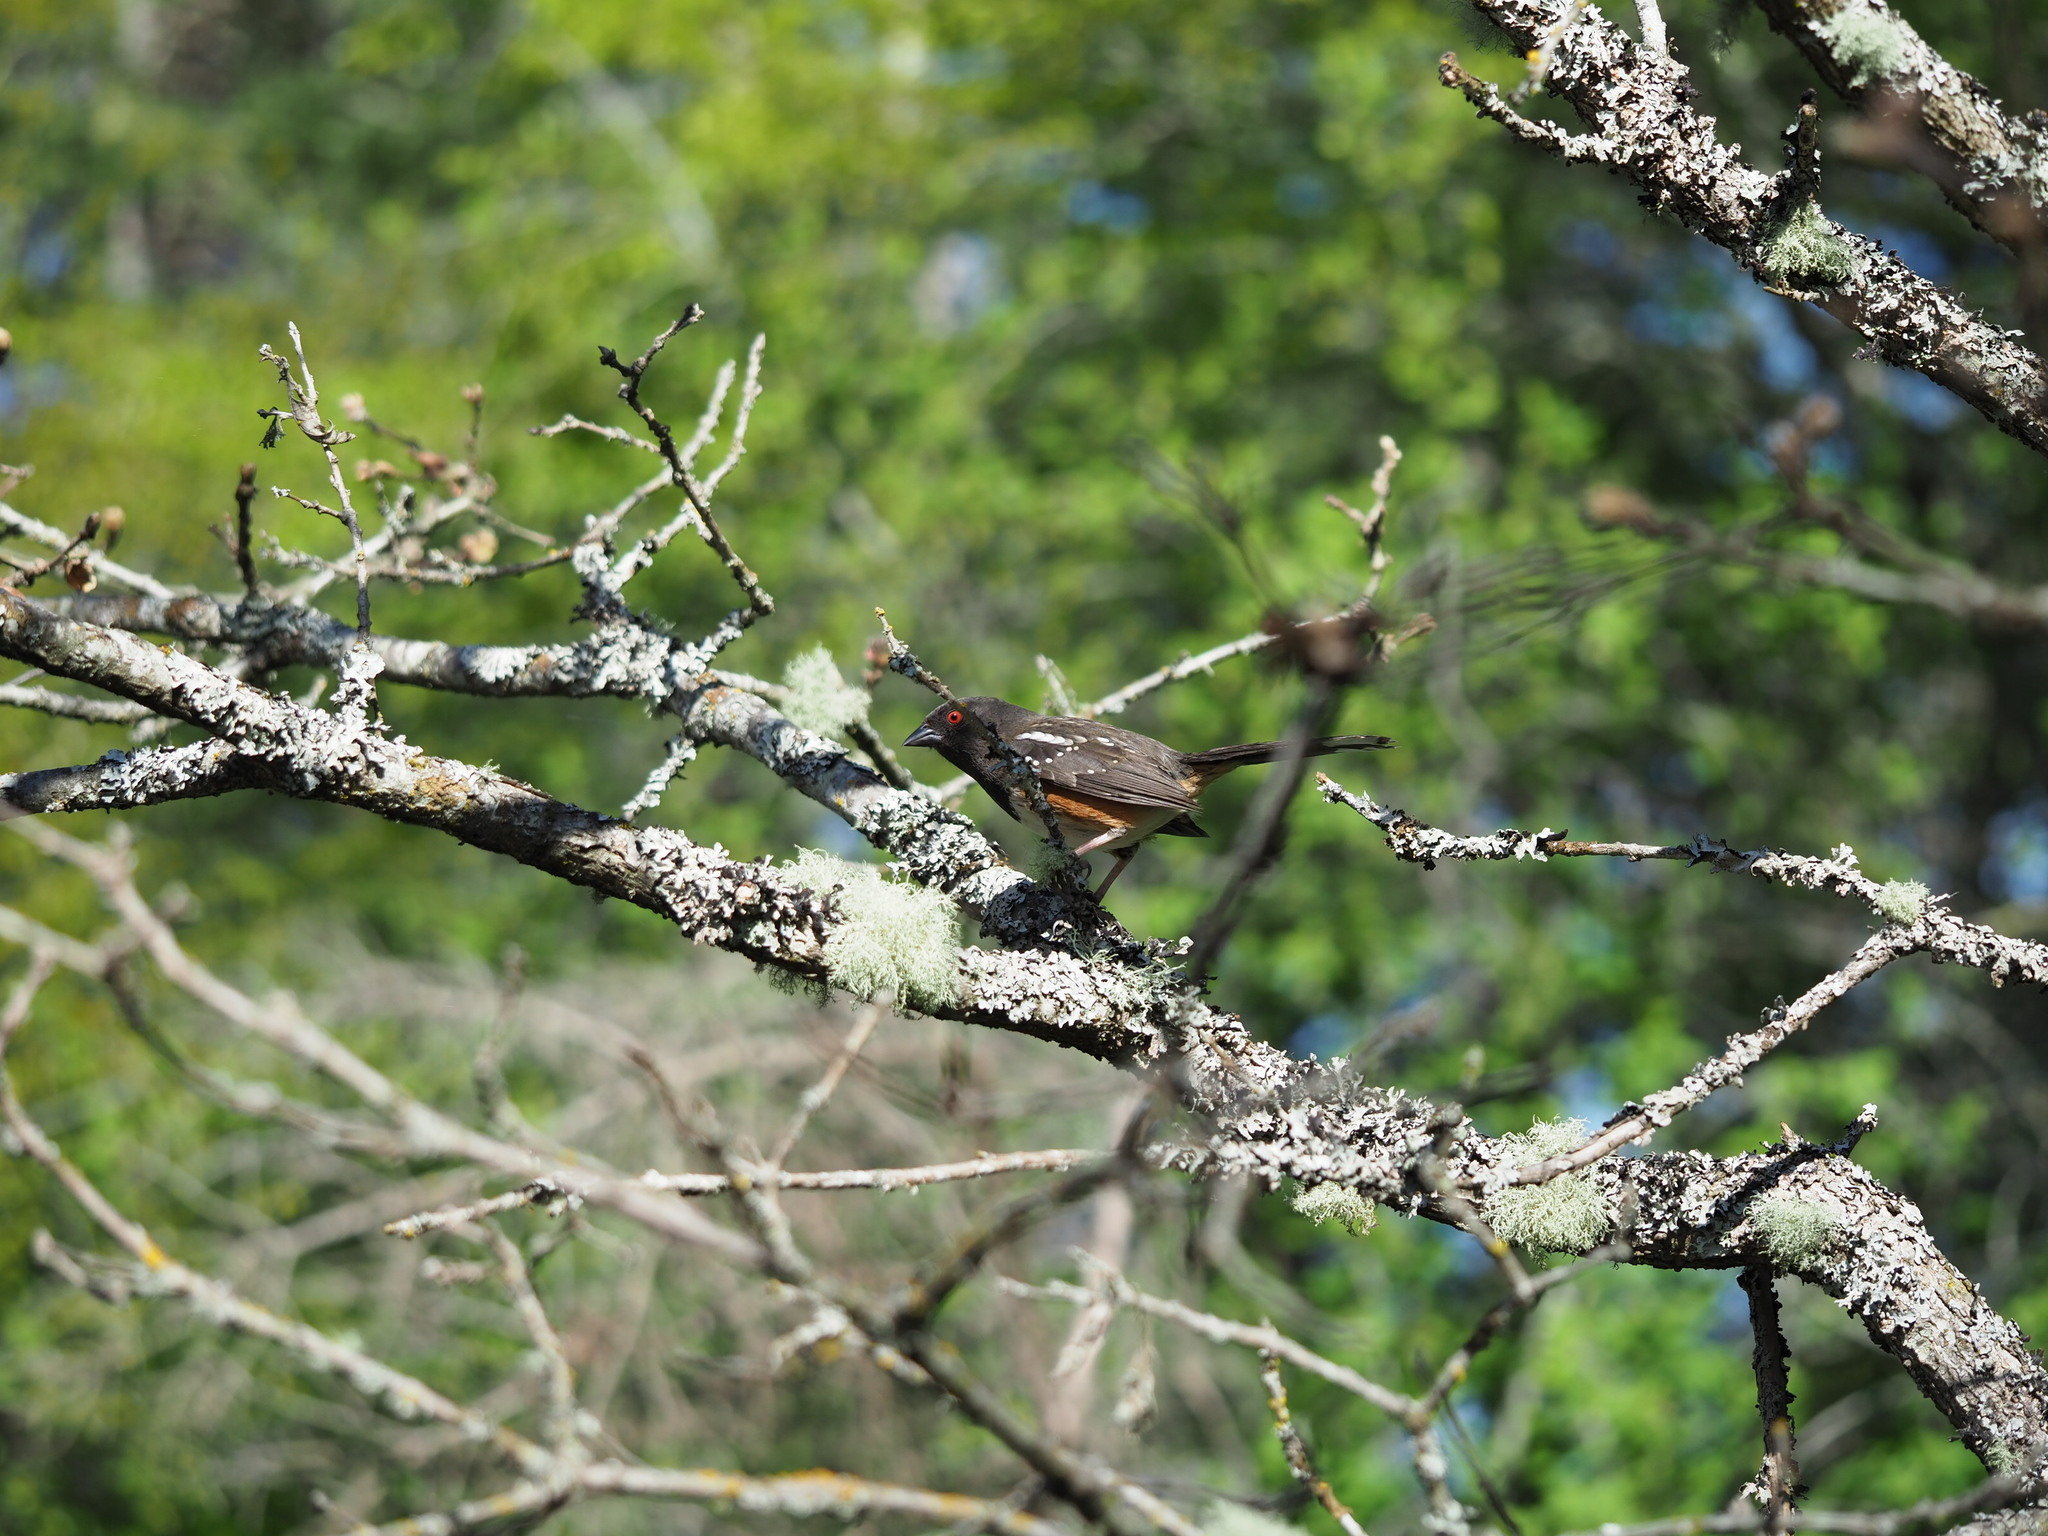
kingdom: Animalia
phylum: Chordata
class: Aves
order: Passeriformes
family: Passerellidae
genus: Pipilo
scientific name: Pipilo maculatus
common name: Spotted towhee
